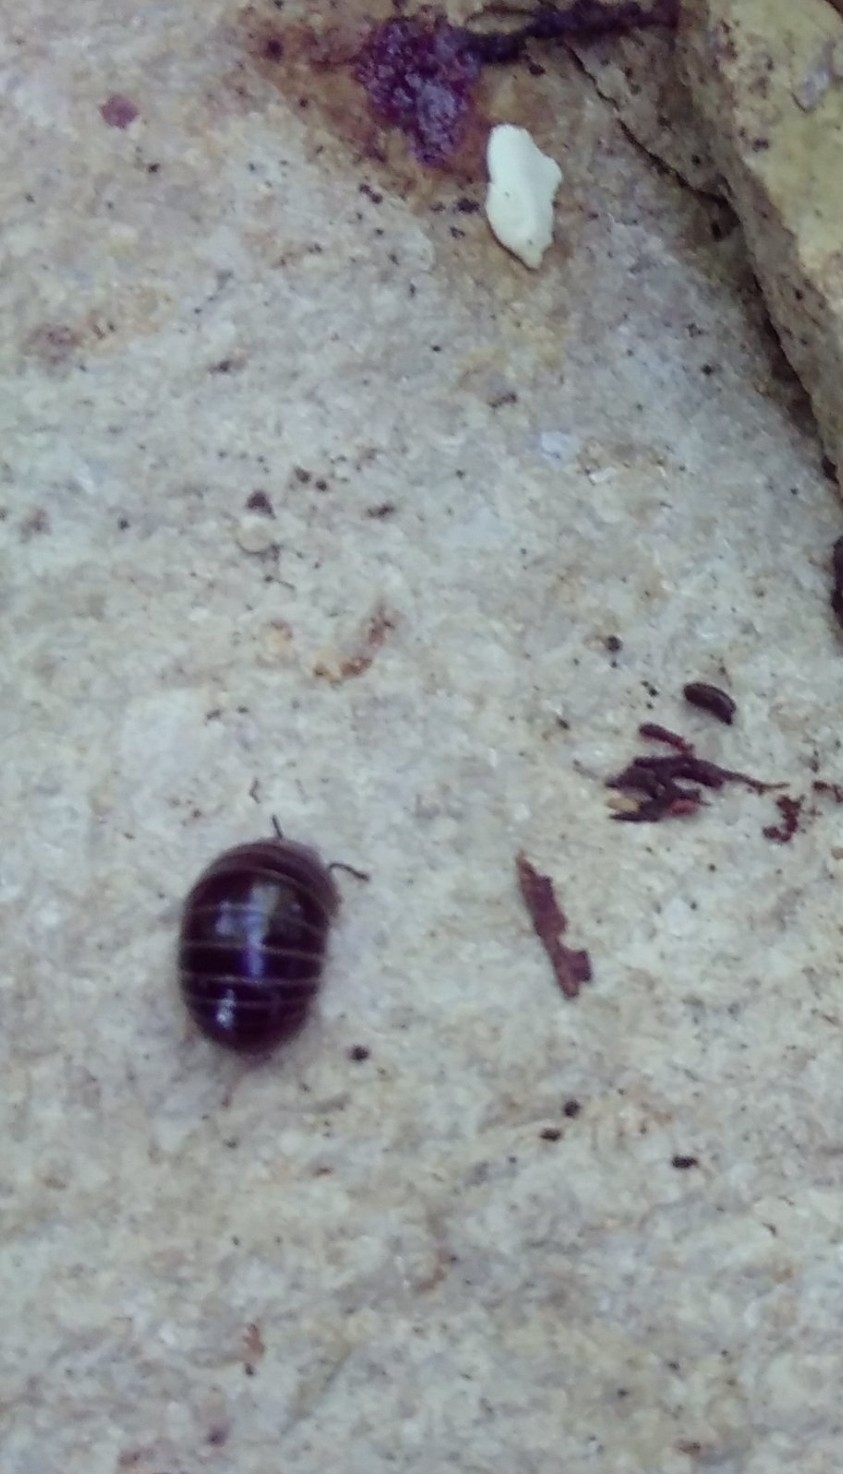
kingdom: Animalia
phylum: Arthropoda
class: Diplopoda
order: Glomerida
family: Glomeridae
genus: Glomeris
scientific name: Glomeris marginata
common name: Bordered pill millipede
